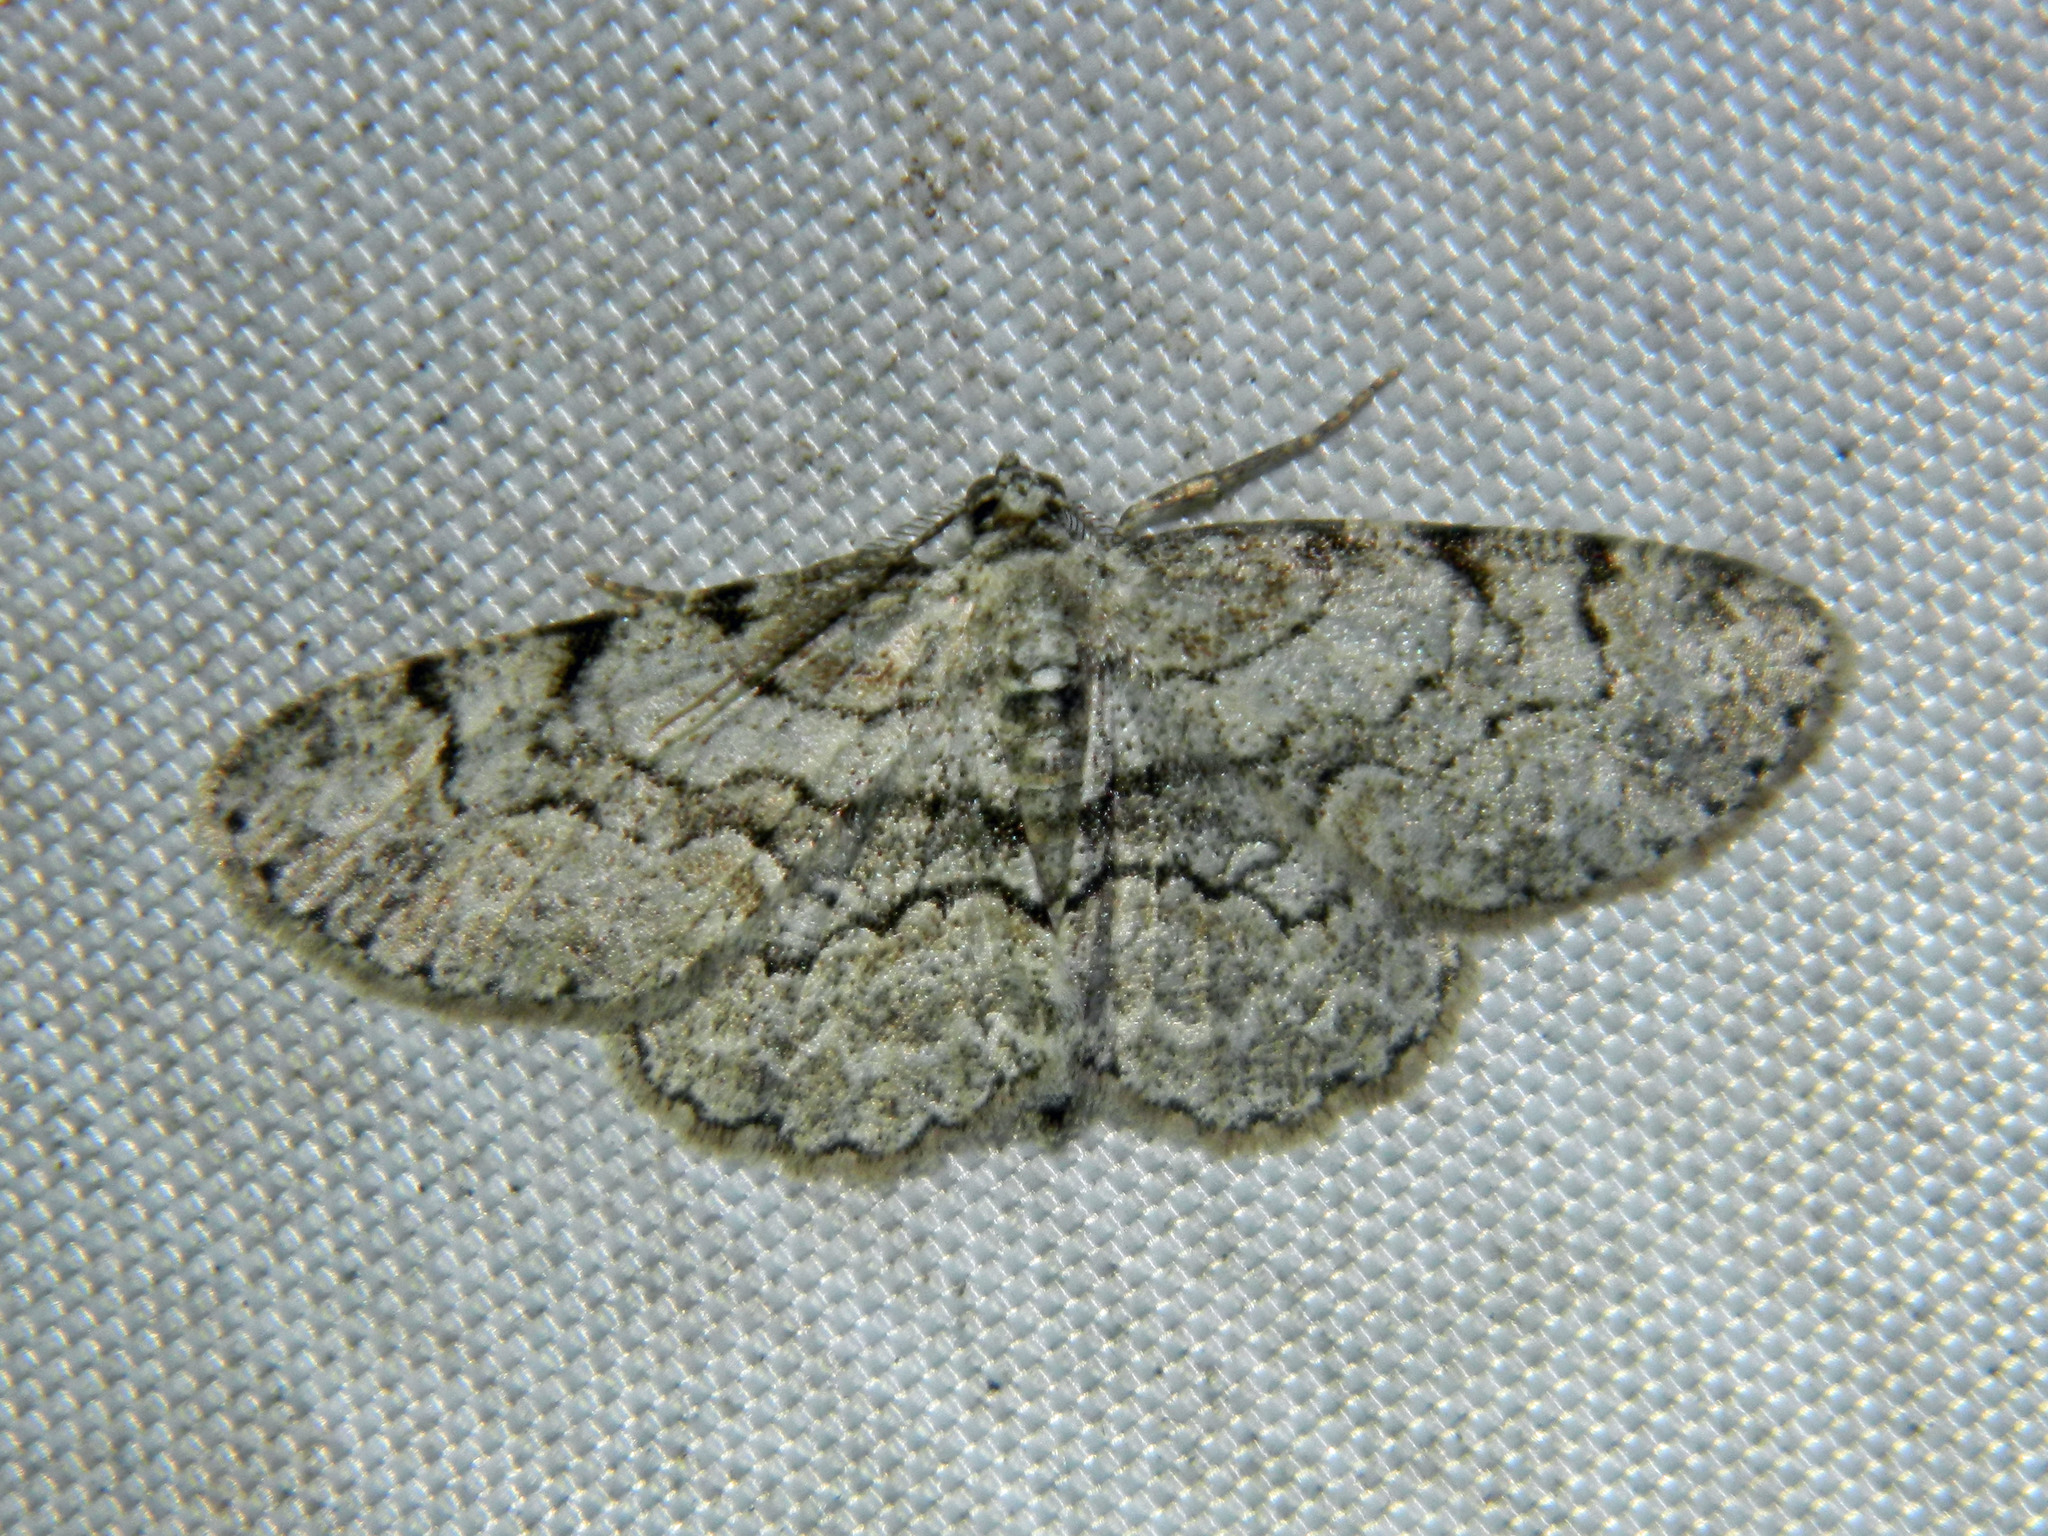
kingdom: Animalia
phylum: Arthropoda
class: Insecta
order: Lepidoptera
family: Geometridae
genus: Iridopsis
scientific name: Iridopsis ephyraria
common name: Pale-winged gray
